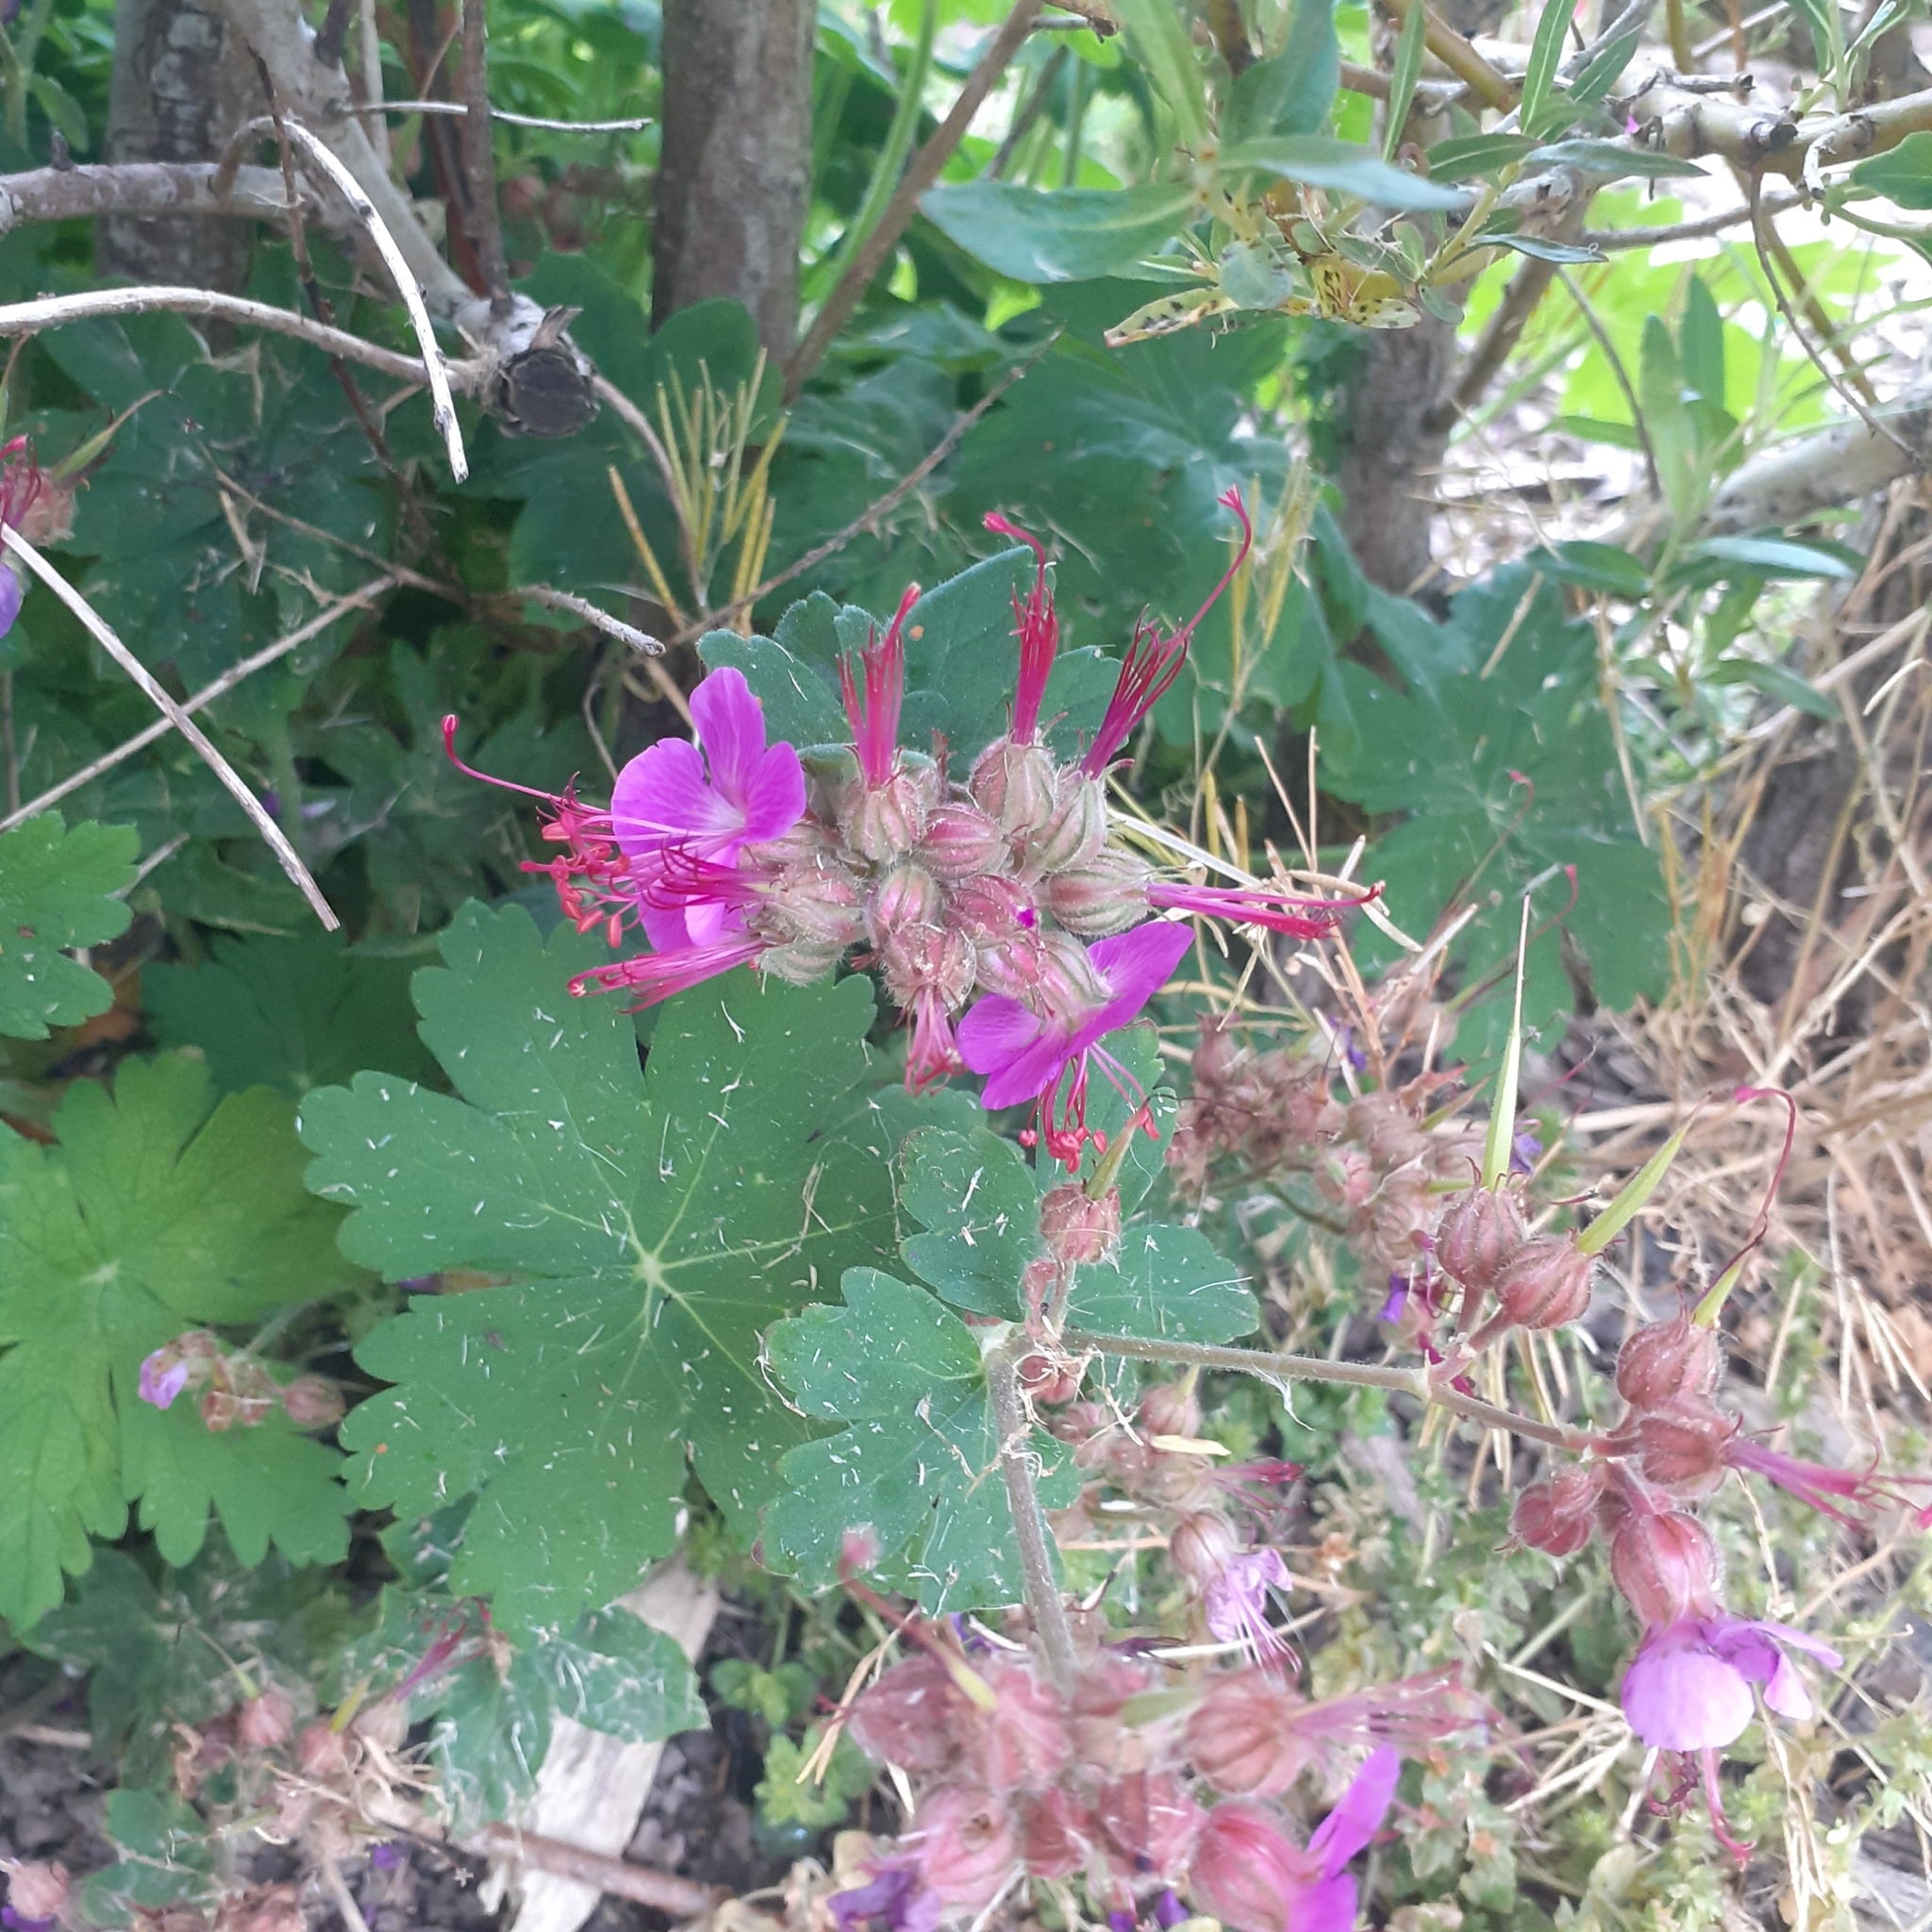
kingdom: Plantae
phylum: Tracheophyta
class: Magnoliopsida
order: Geraniales
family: Geraniaceae
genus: Geranium
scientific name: Geranium macrorrhizum
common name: Rock crane's-bill
